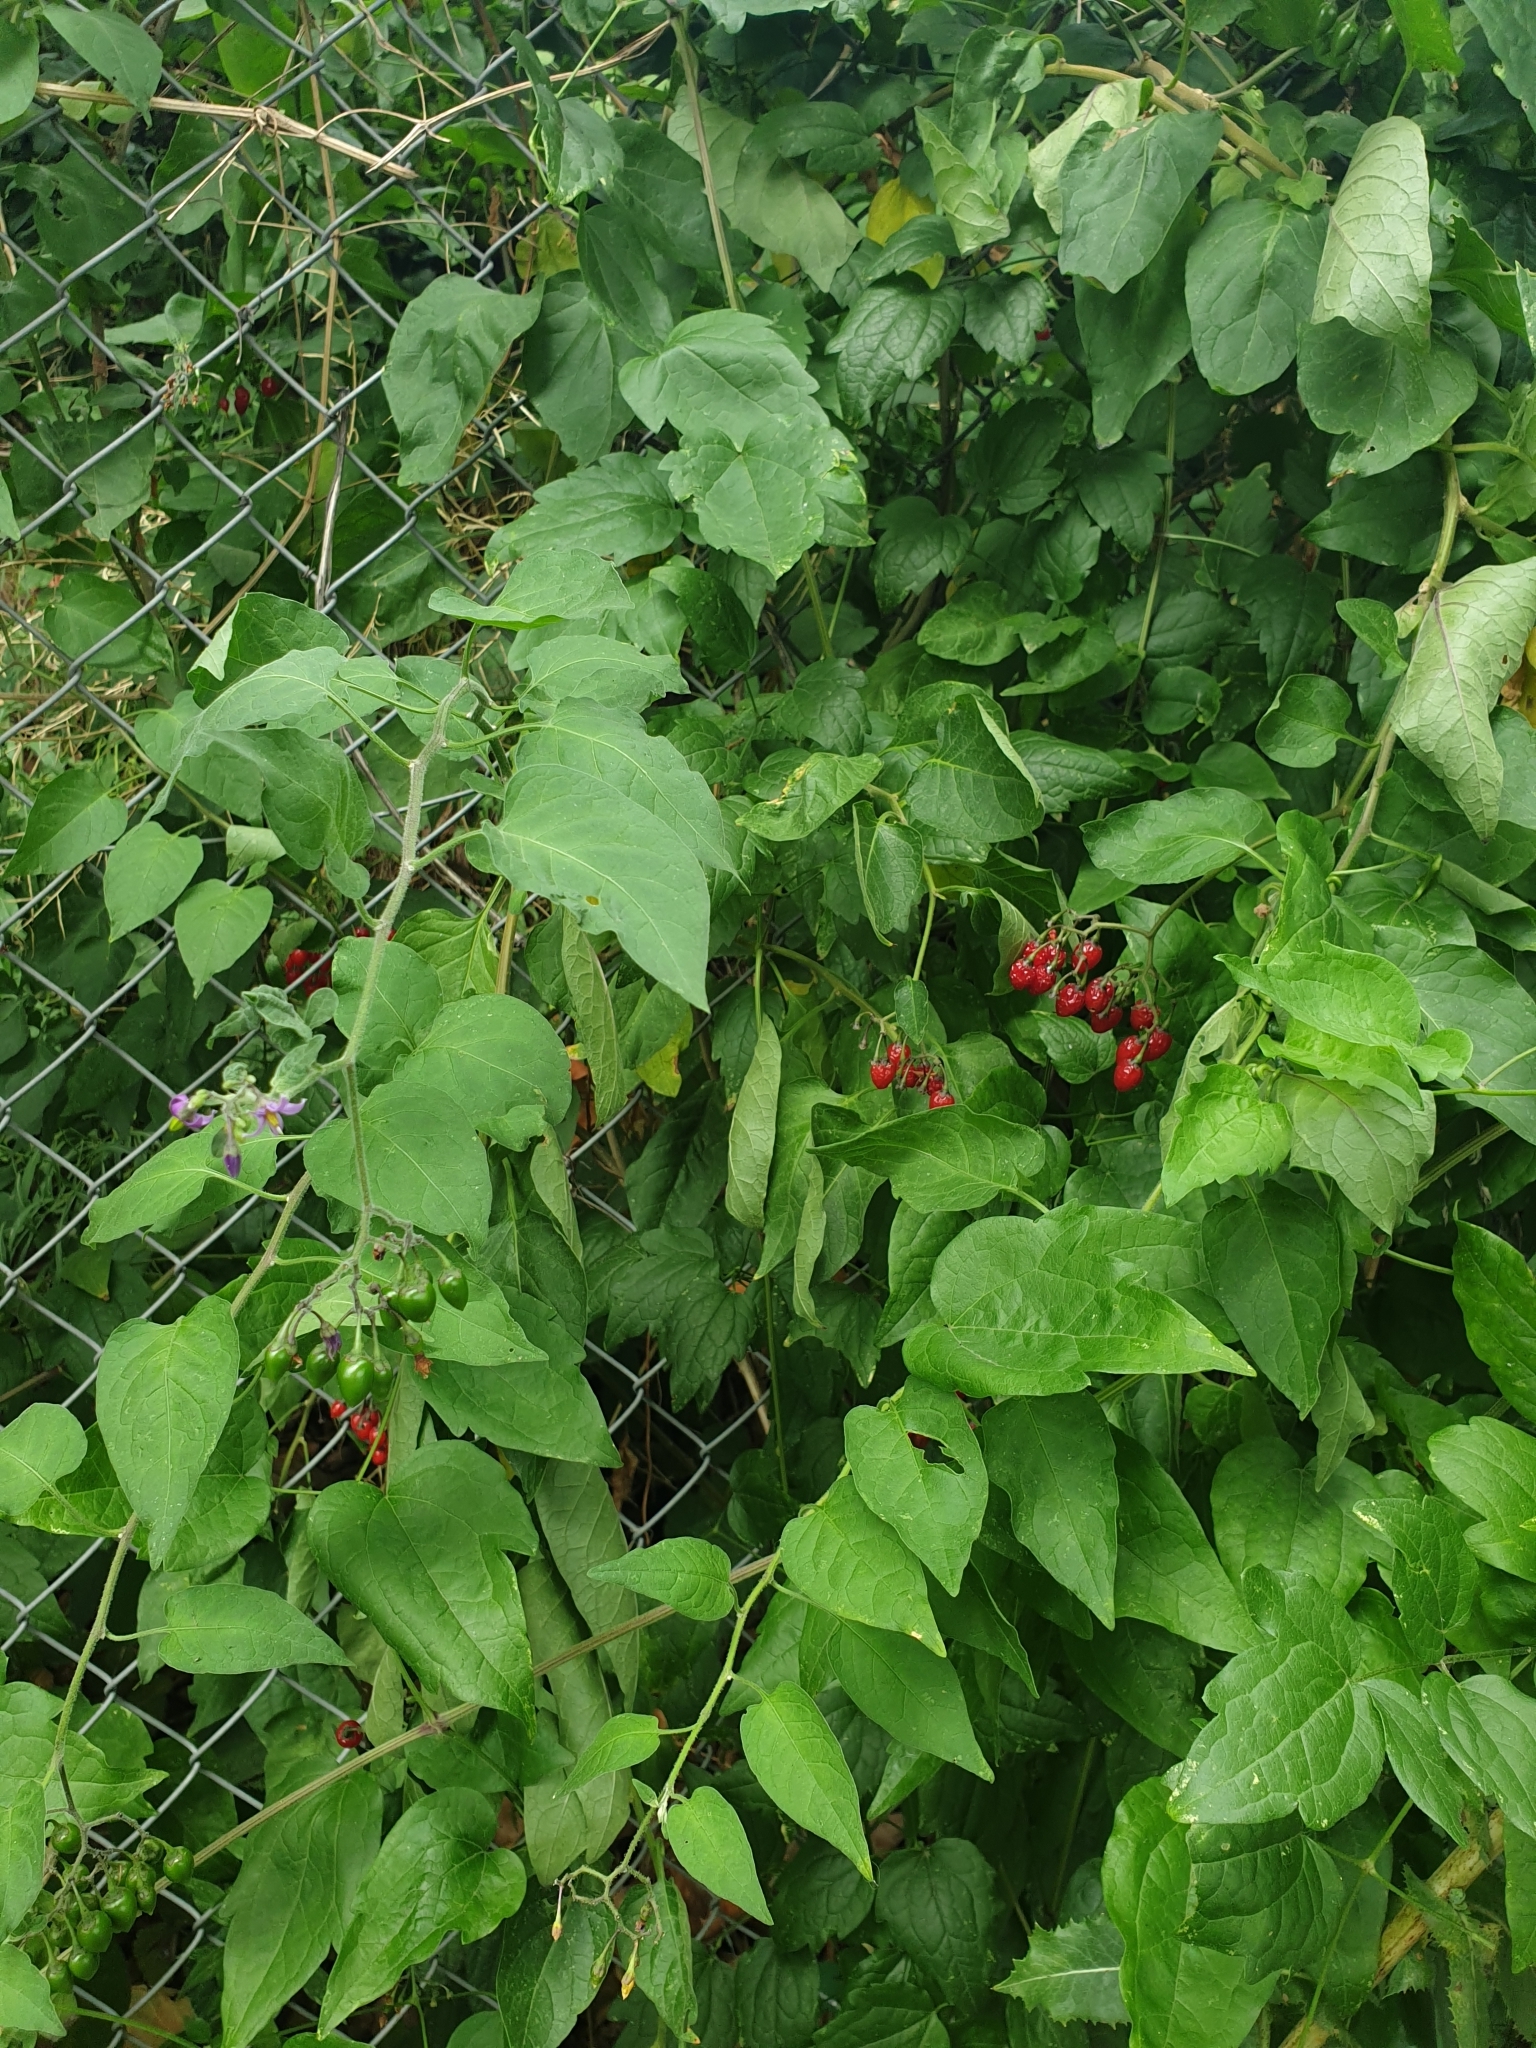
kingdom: Plantae
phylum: Tracheophyta
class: Magnoliopsida
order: Solanales
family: Solanaceae
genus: Solanum
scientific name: Solanum dulcamara
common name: Climbing nightshade
